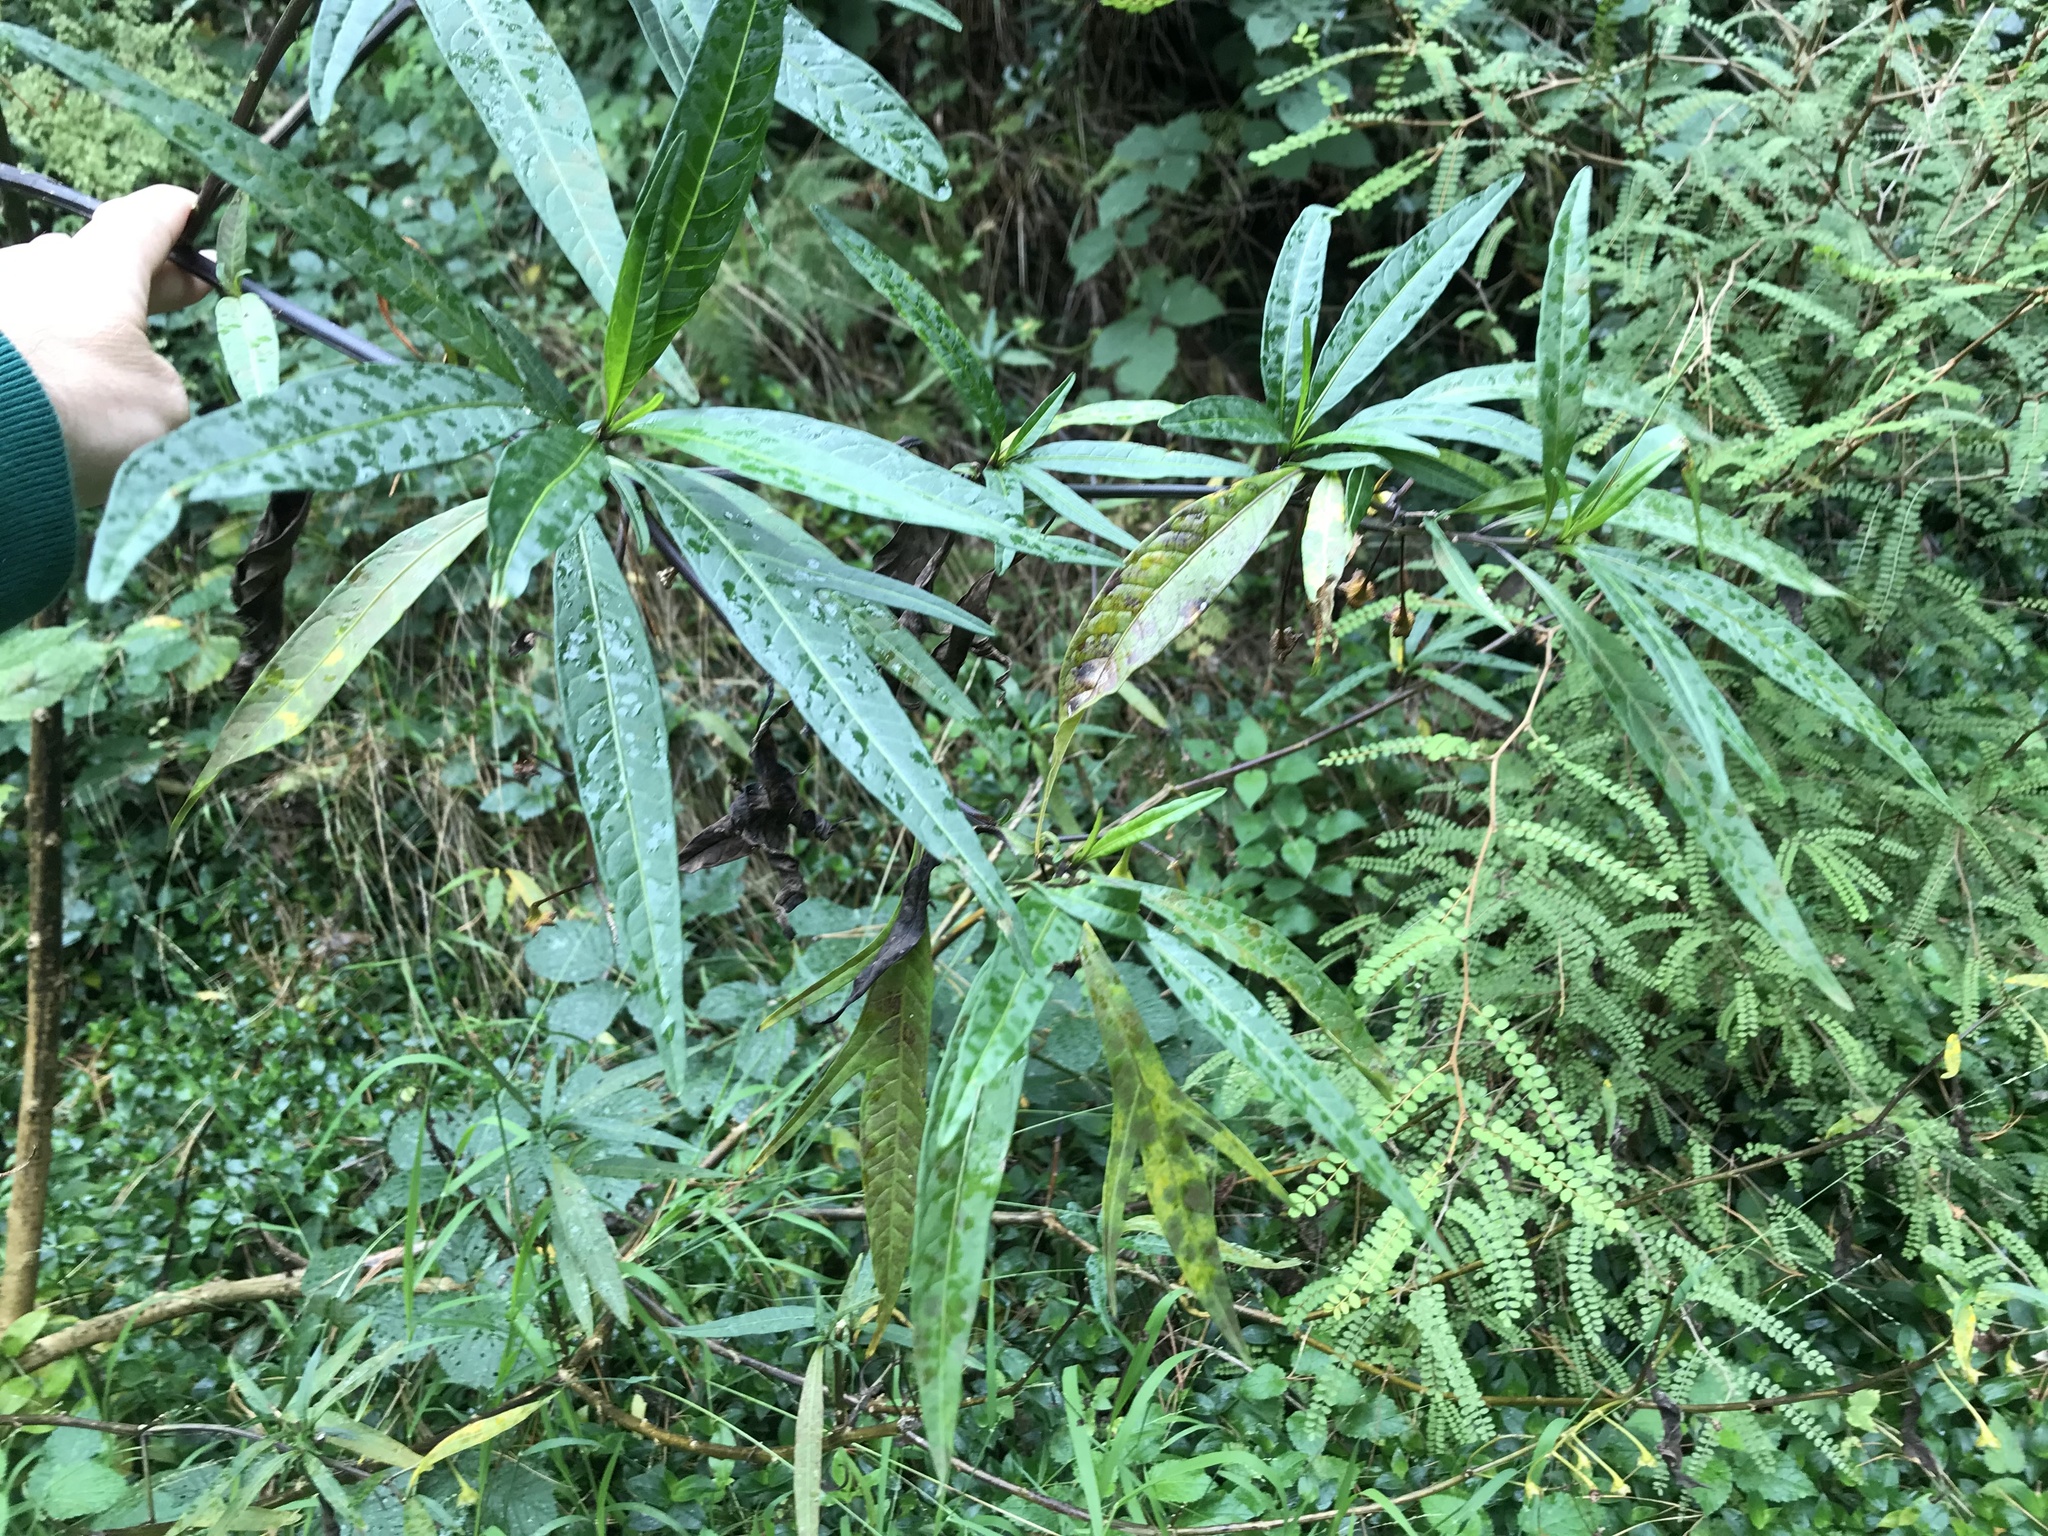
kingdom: Plantae
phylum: Tracheophyta
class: Magnoliopsida
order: Solanales
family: Solanaceae
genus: Solanum
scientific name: Solanum
